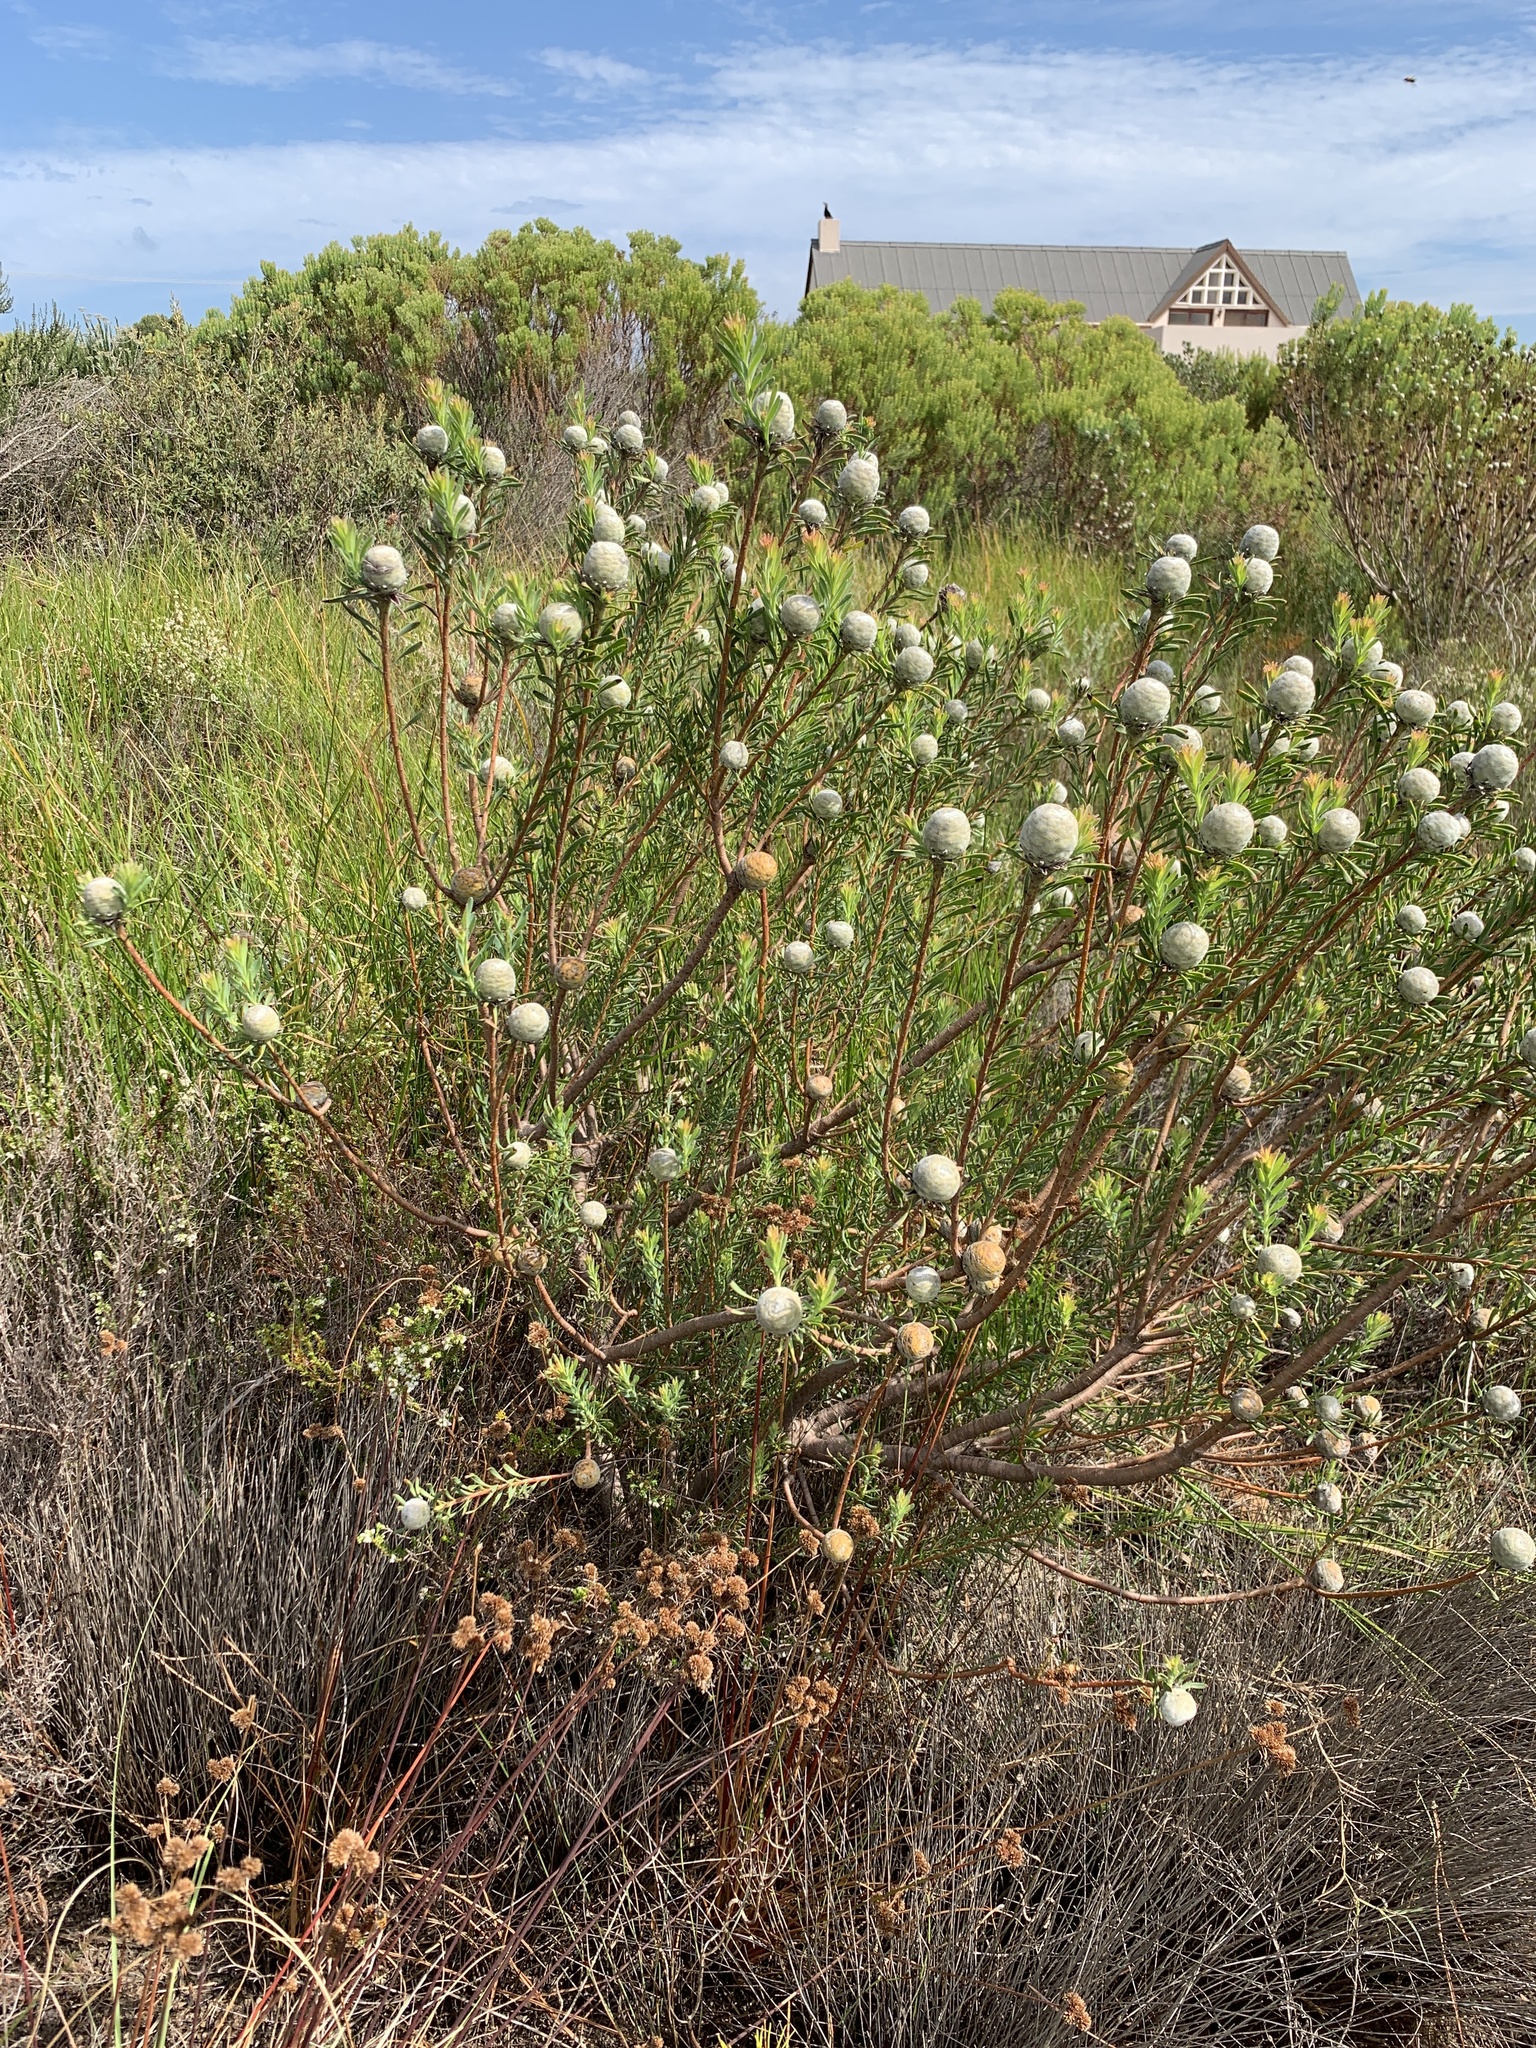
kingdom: Plantae
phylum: Tracheophyta
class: Magnoliopsida
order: Proteales
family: Proteaceae
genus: Leucadendron
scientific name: Leucadendron linifolium
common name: Line-leaf conebush
